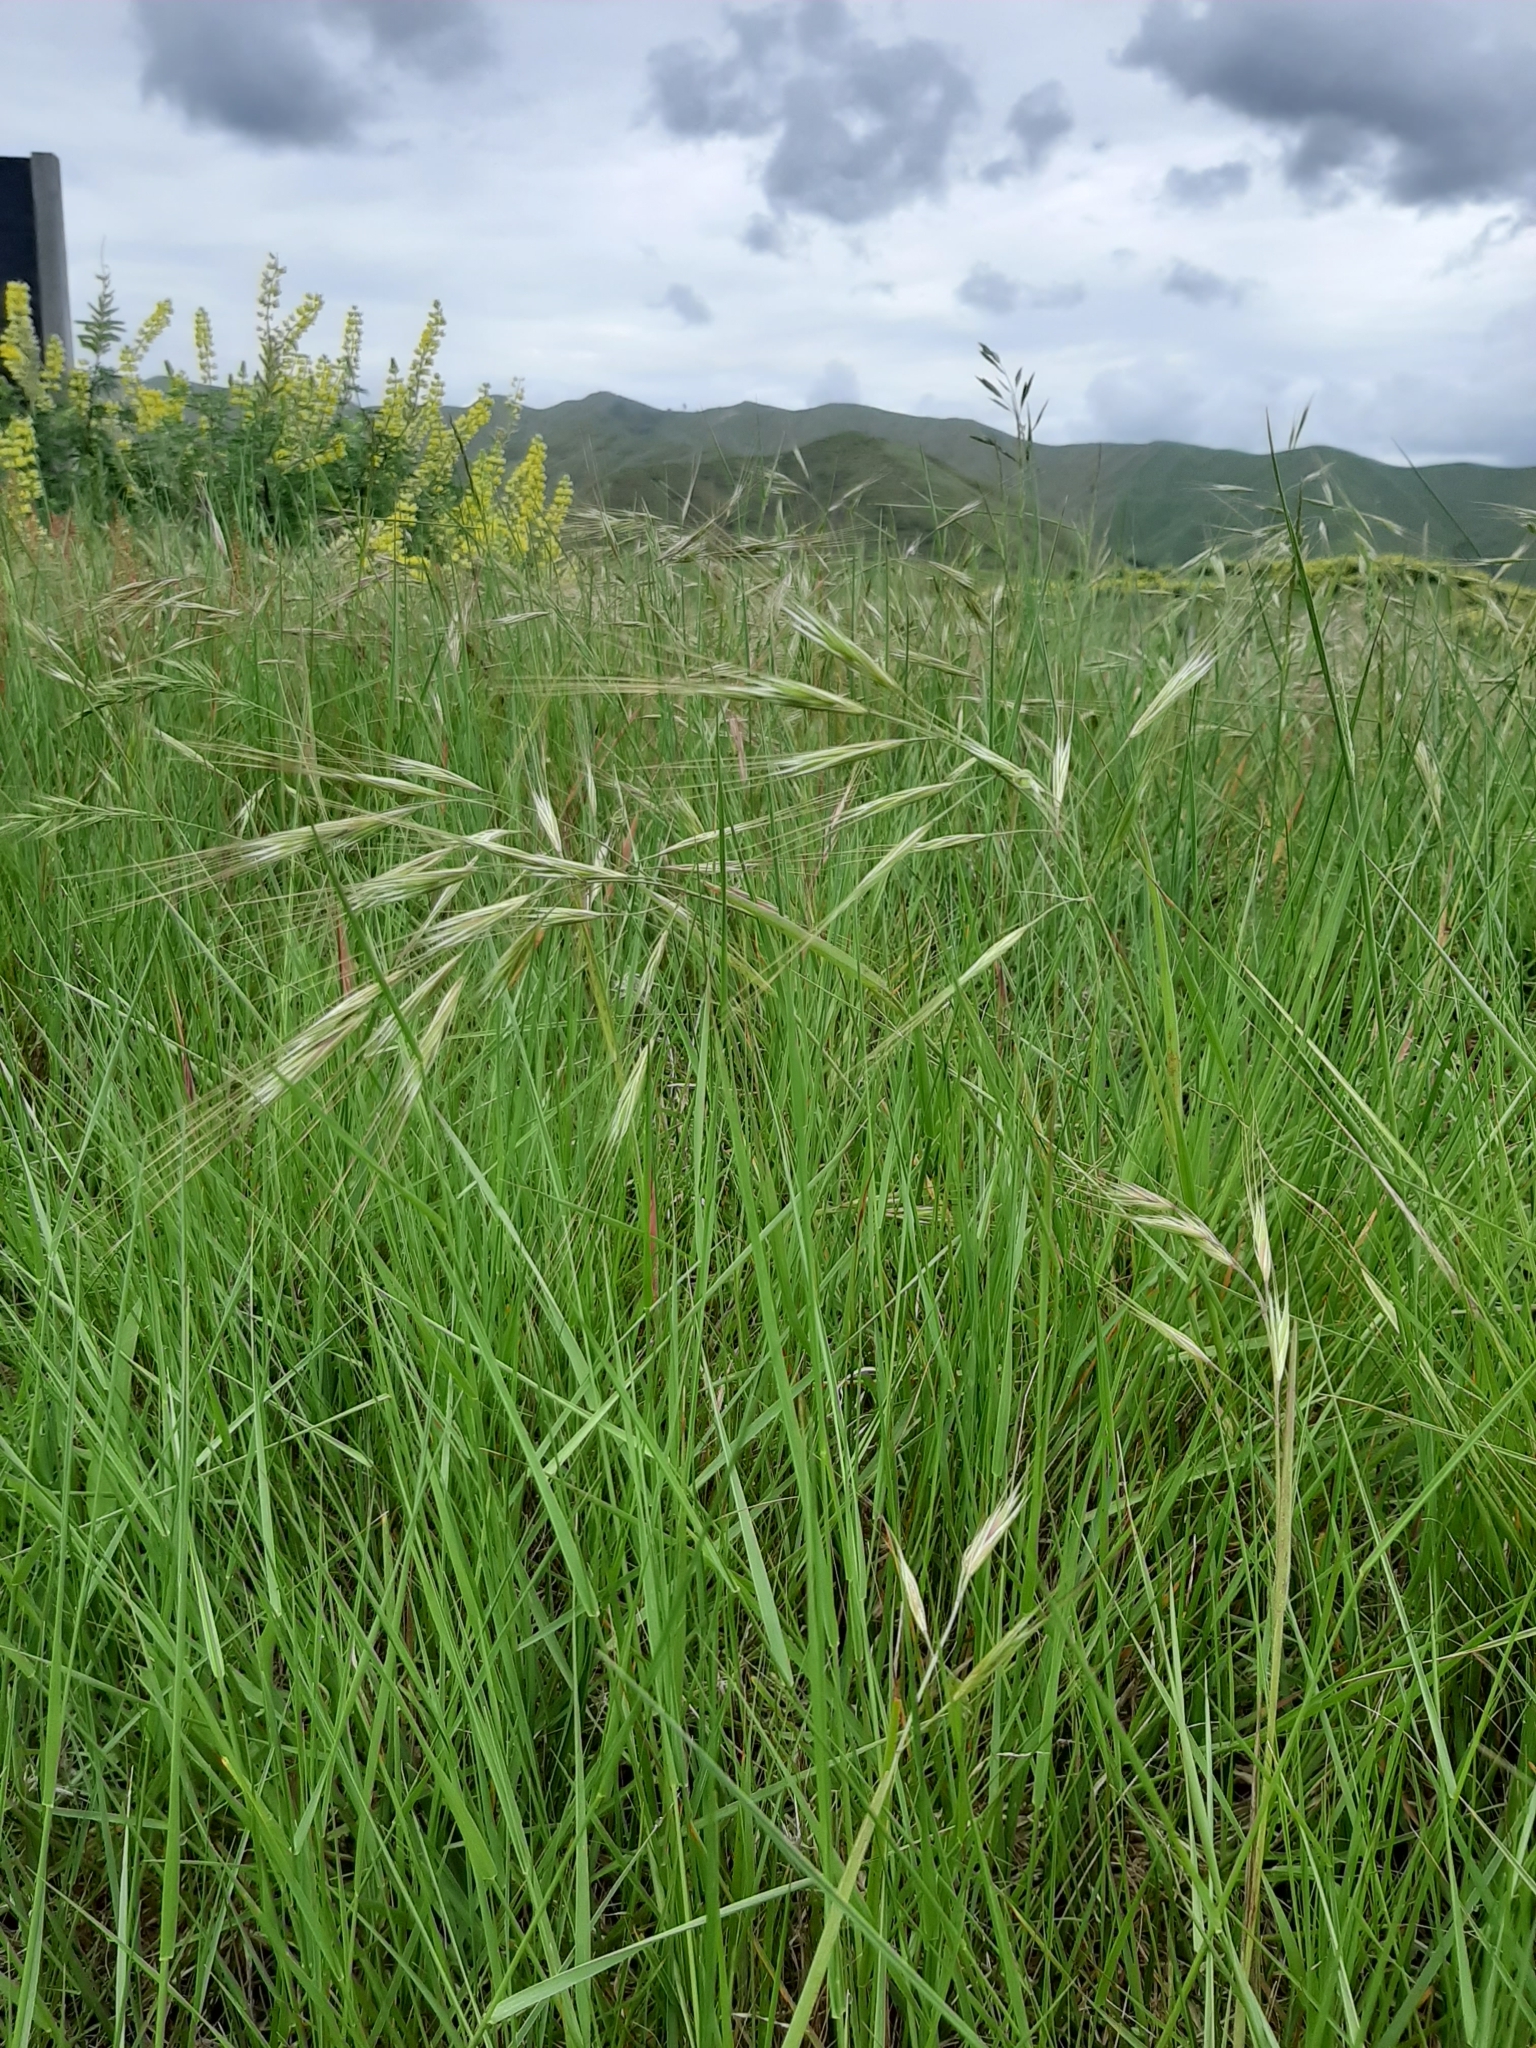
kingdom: Plantae
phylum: Tracheophyta
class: Liliopsida
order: Poales
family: Poaceae
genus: Bromus
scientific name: Bromus diandrus
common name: Ripgut brome
